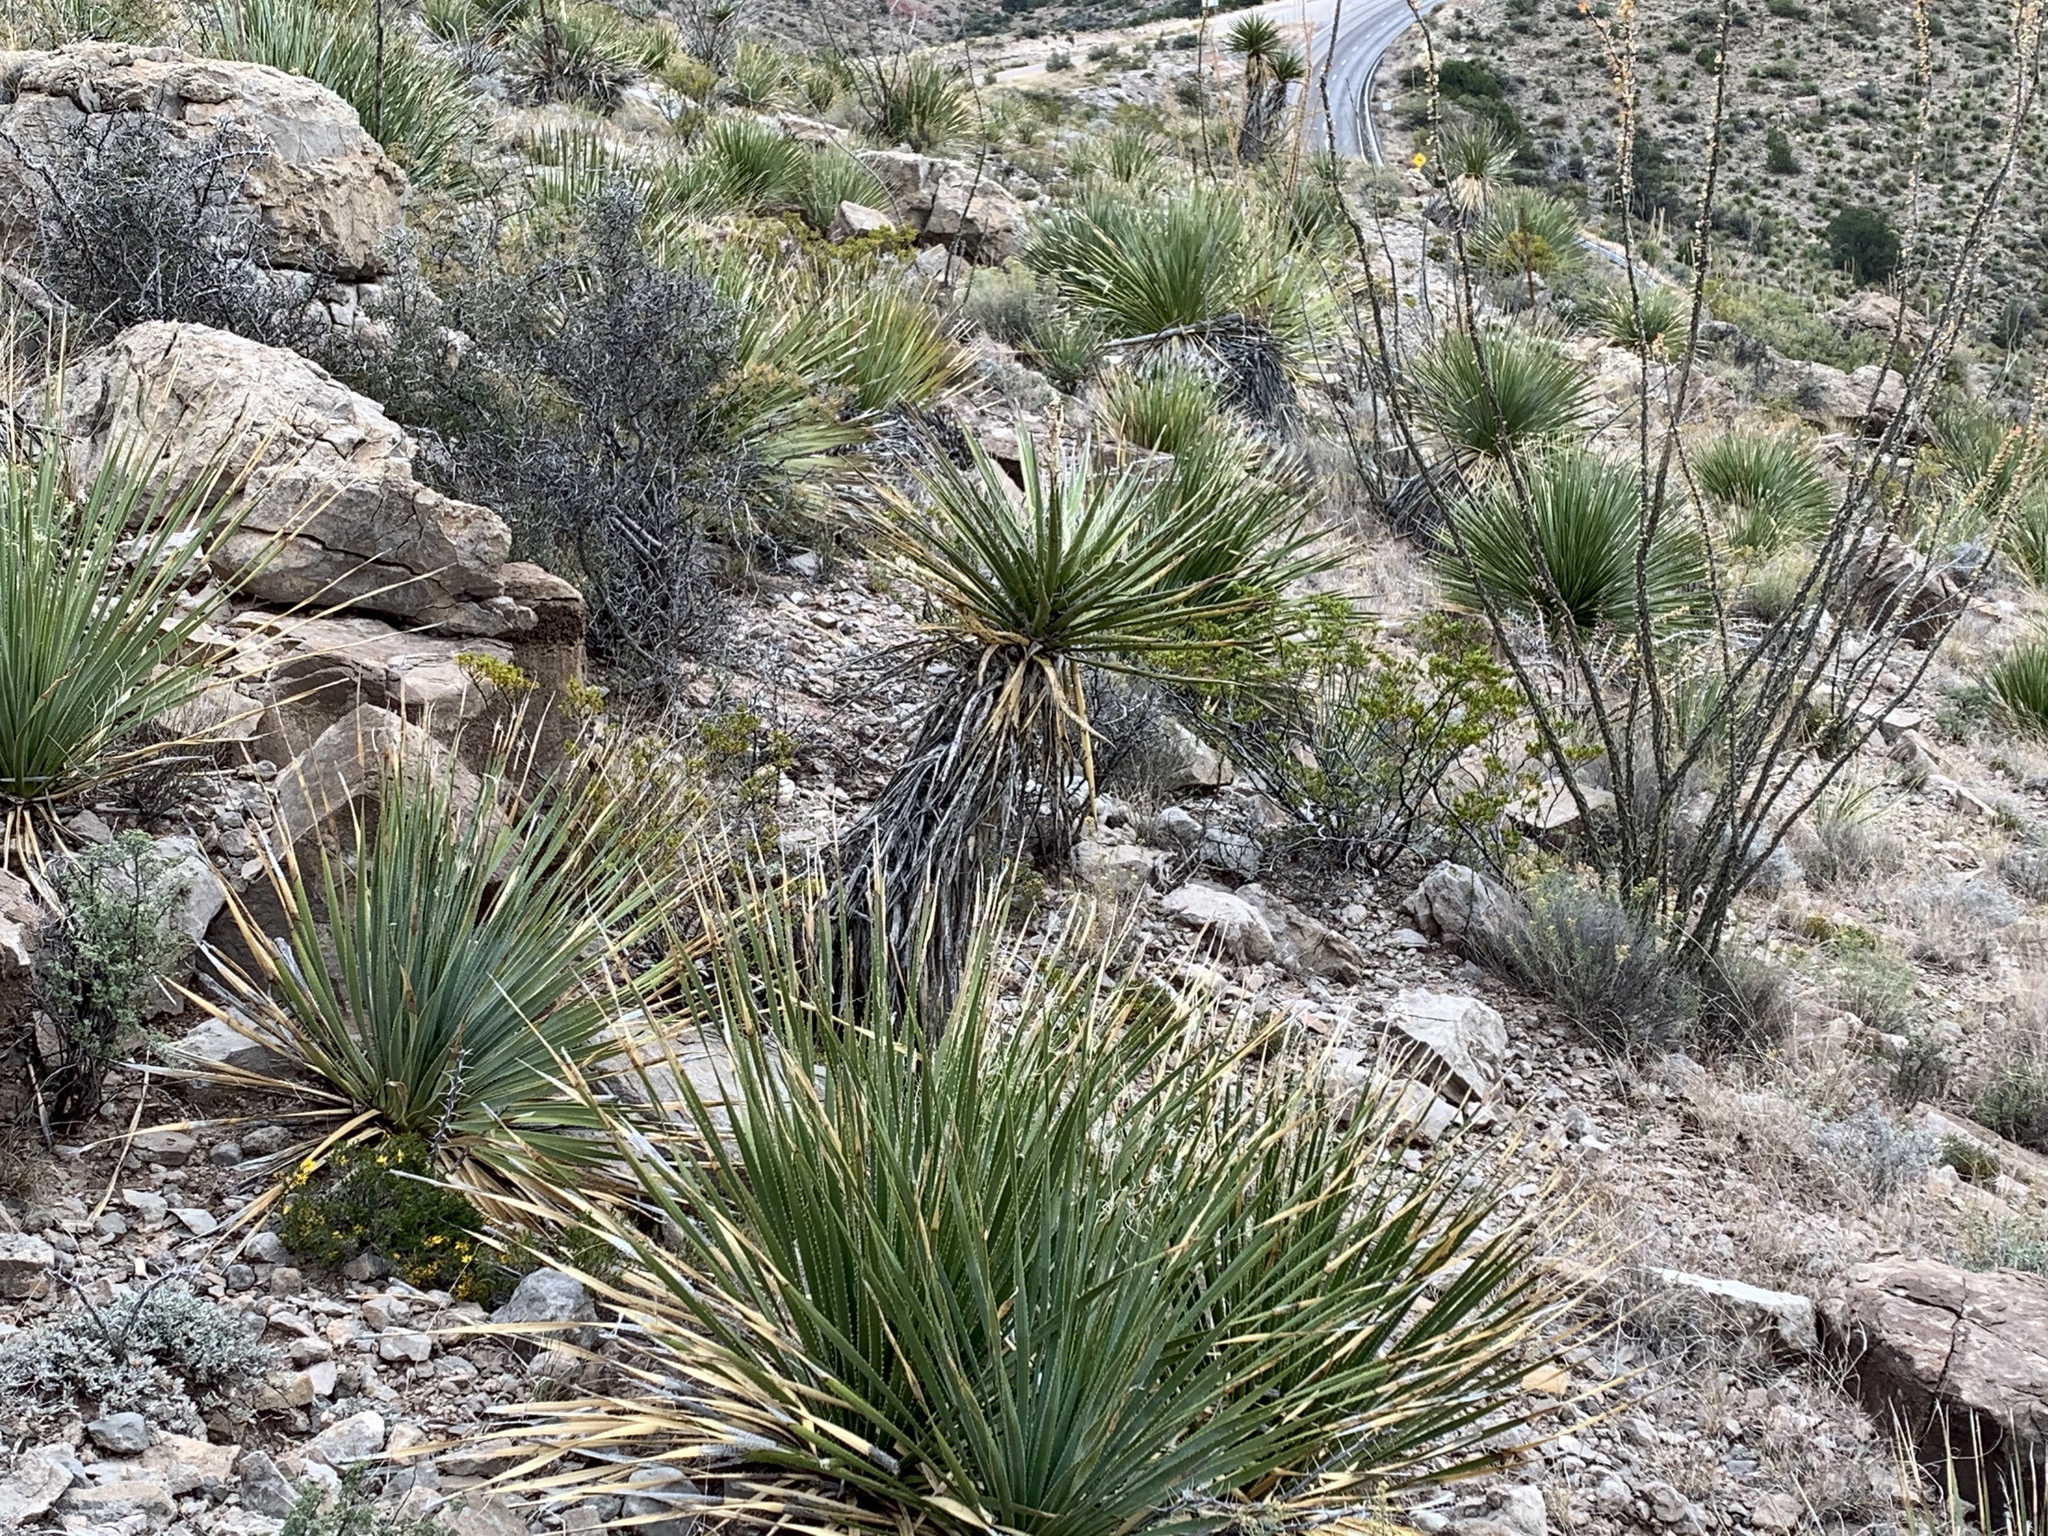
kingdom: Plantae
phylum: Tracheophyta
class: Liliopsida
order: Asparagales
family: Asparagaceae
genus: Yucca
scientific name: Yucca treculiana
